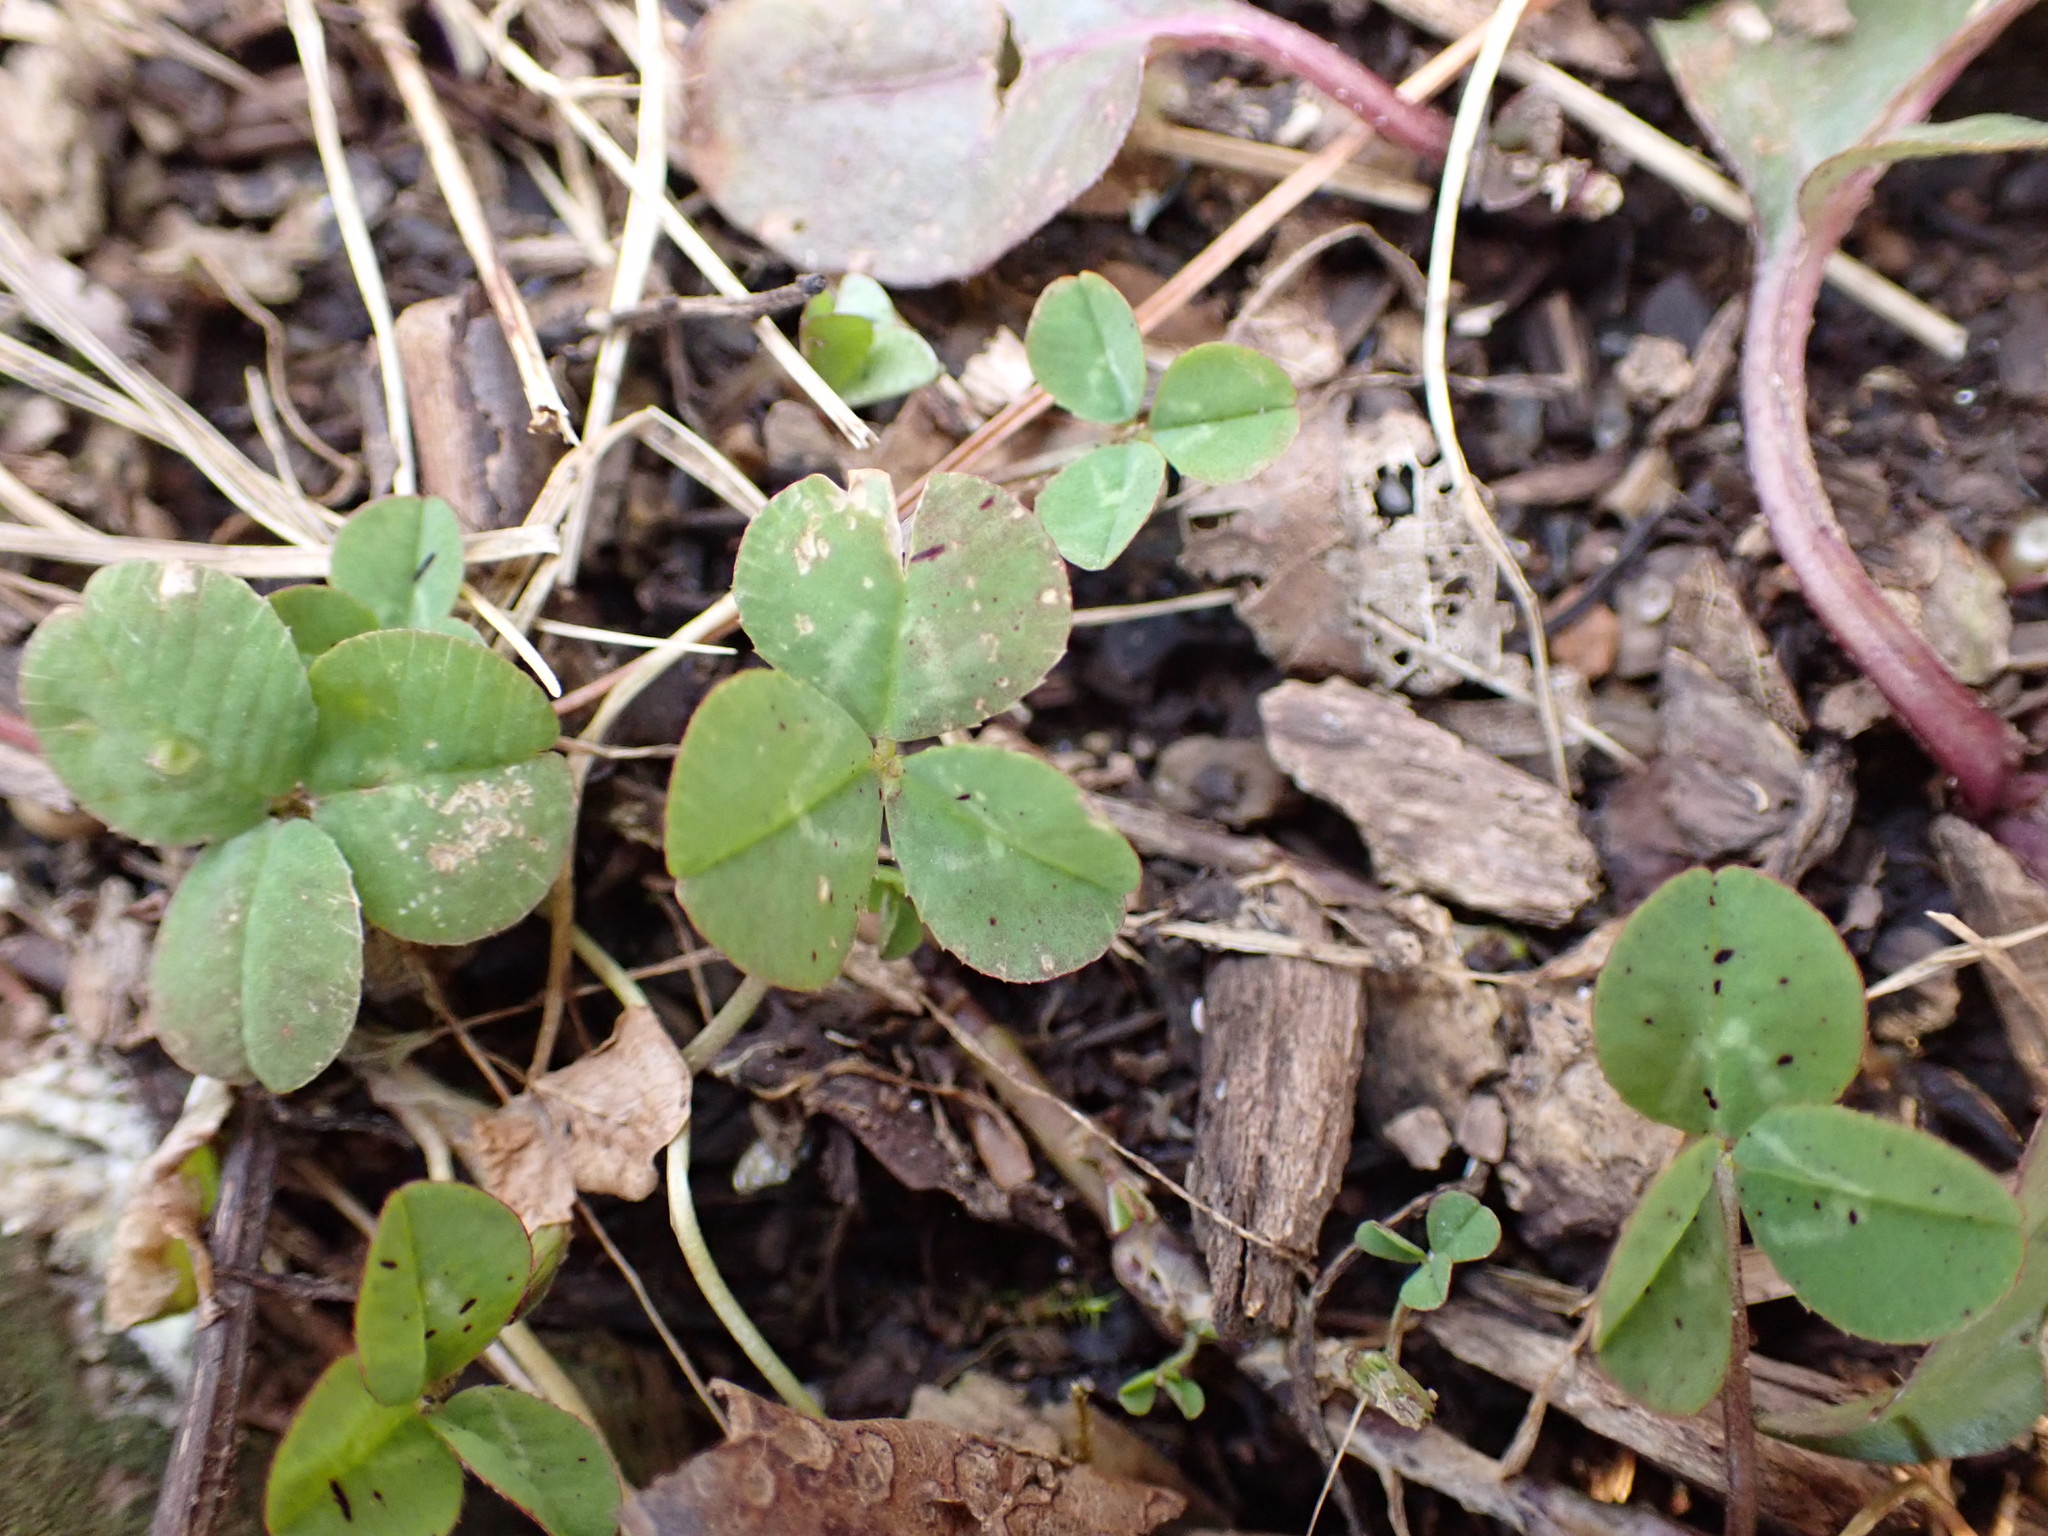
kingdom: Plantae
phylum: Tracheophyta
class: Magnoliopsida
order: Fabales
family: Fabaceae
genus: Trifolium
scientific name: Trifolium repens
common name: White clover
